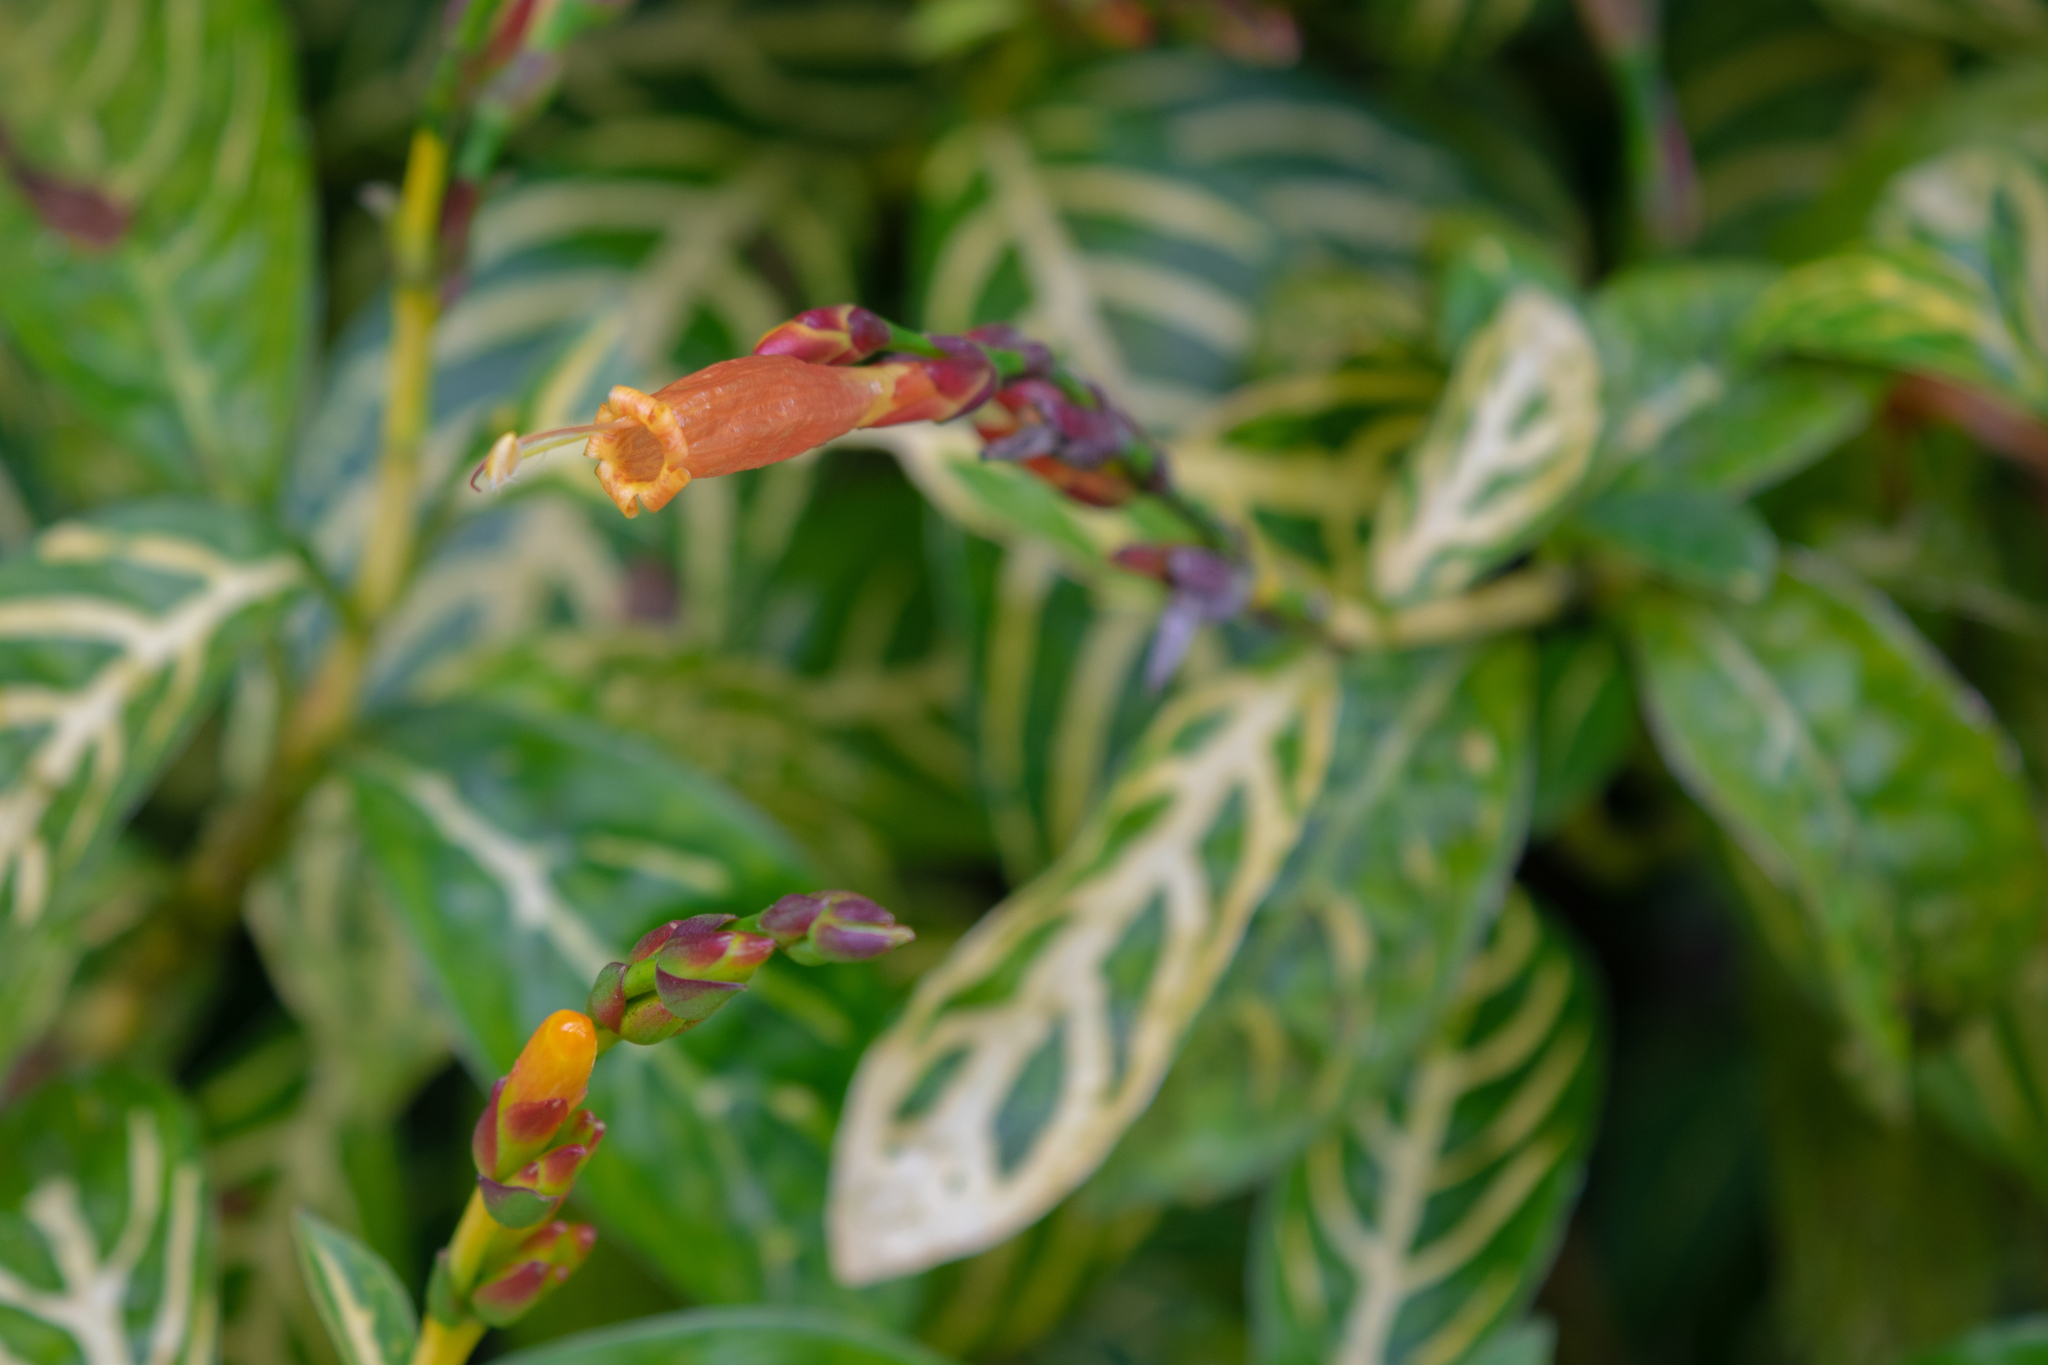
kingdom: Plantae
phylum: Tracheophyta
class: Magnoliopsida
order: Lamiales
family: Acanthaceae
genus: Sanchezia
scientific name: Sanchezia tigrina
